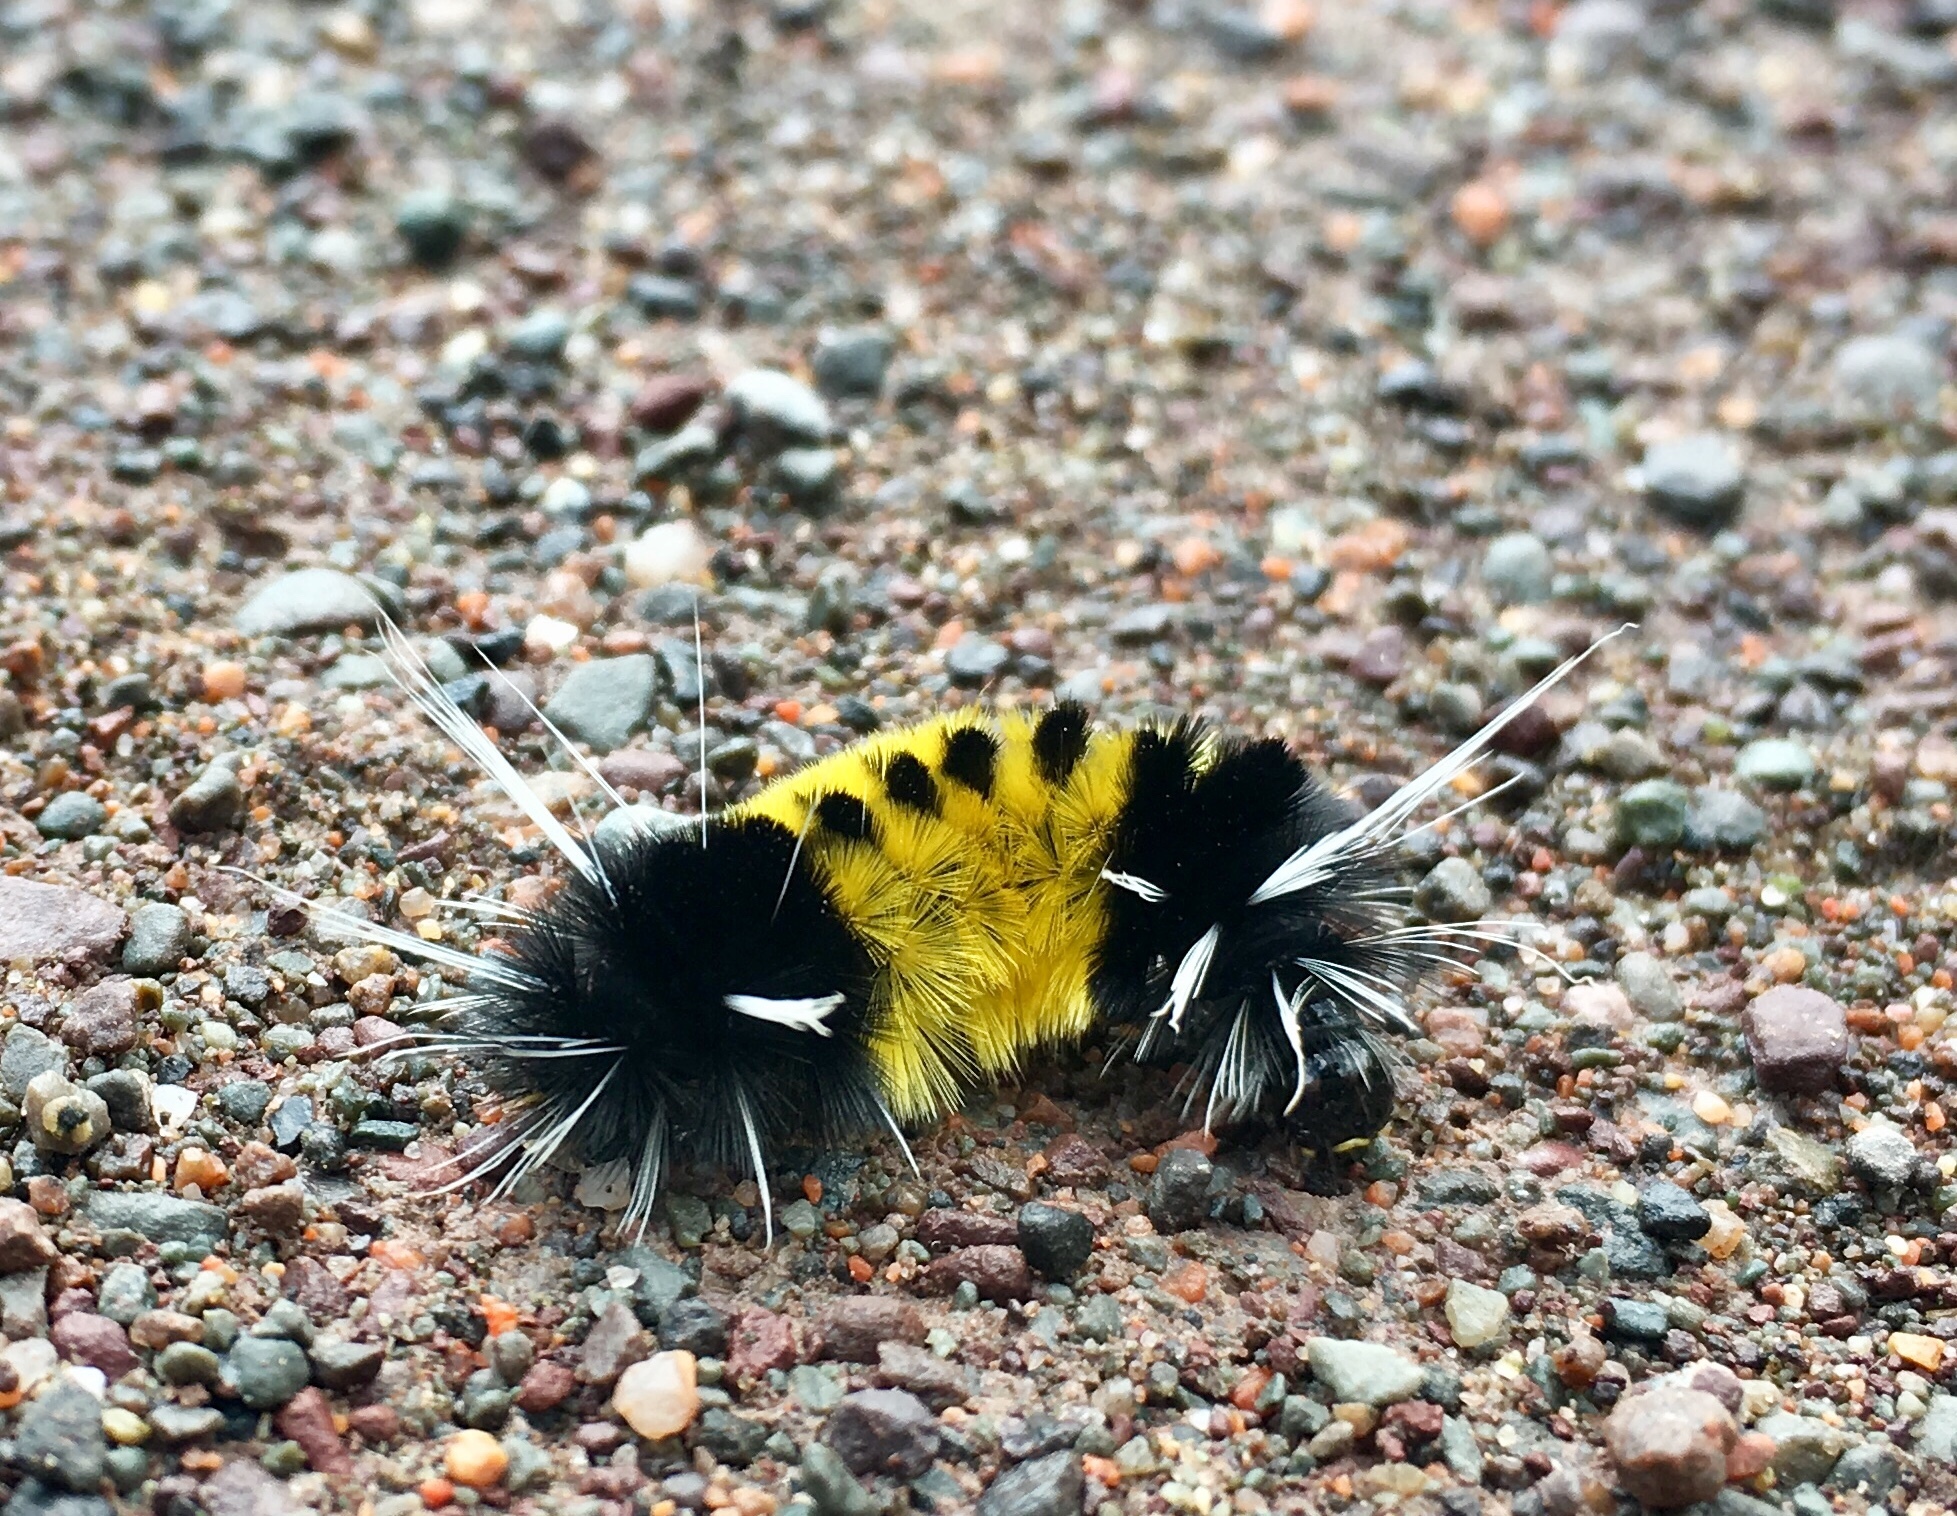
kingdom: Animalia
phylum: Arthropoda
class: Insecta
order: Lepidoptera
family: Erebidae
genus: Lophocampa
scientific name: Lophocampa maculata
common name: Spotted tussock moth
